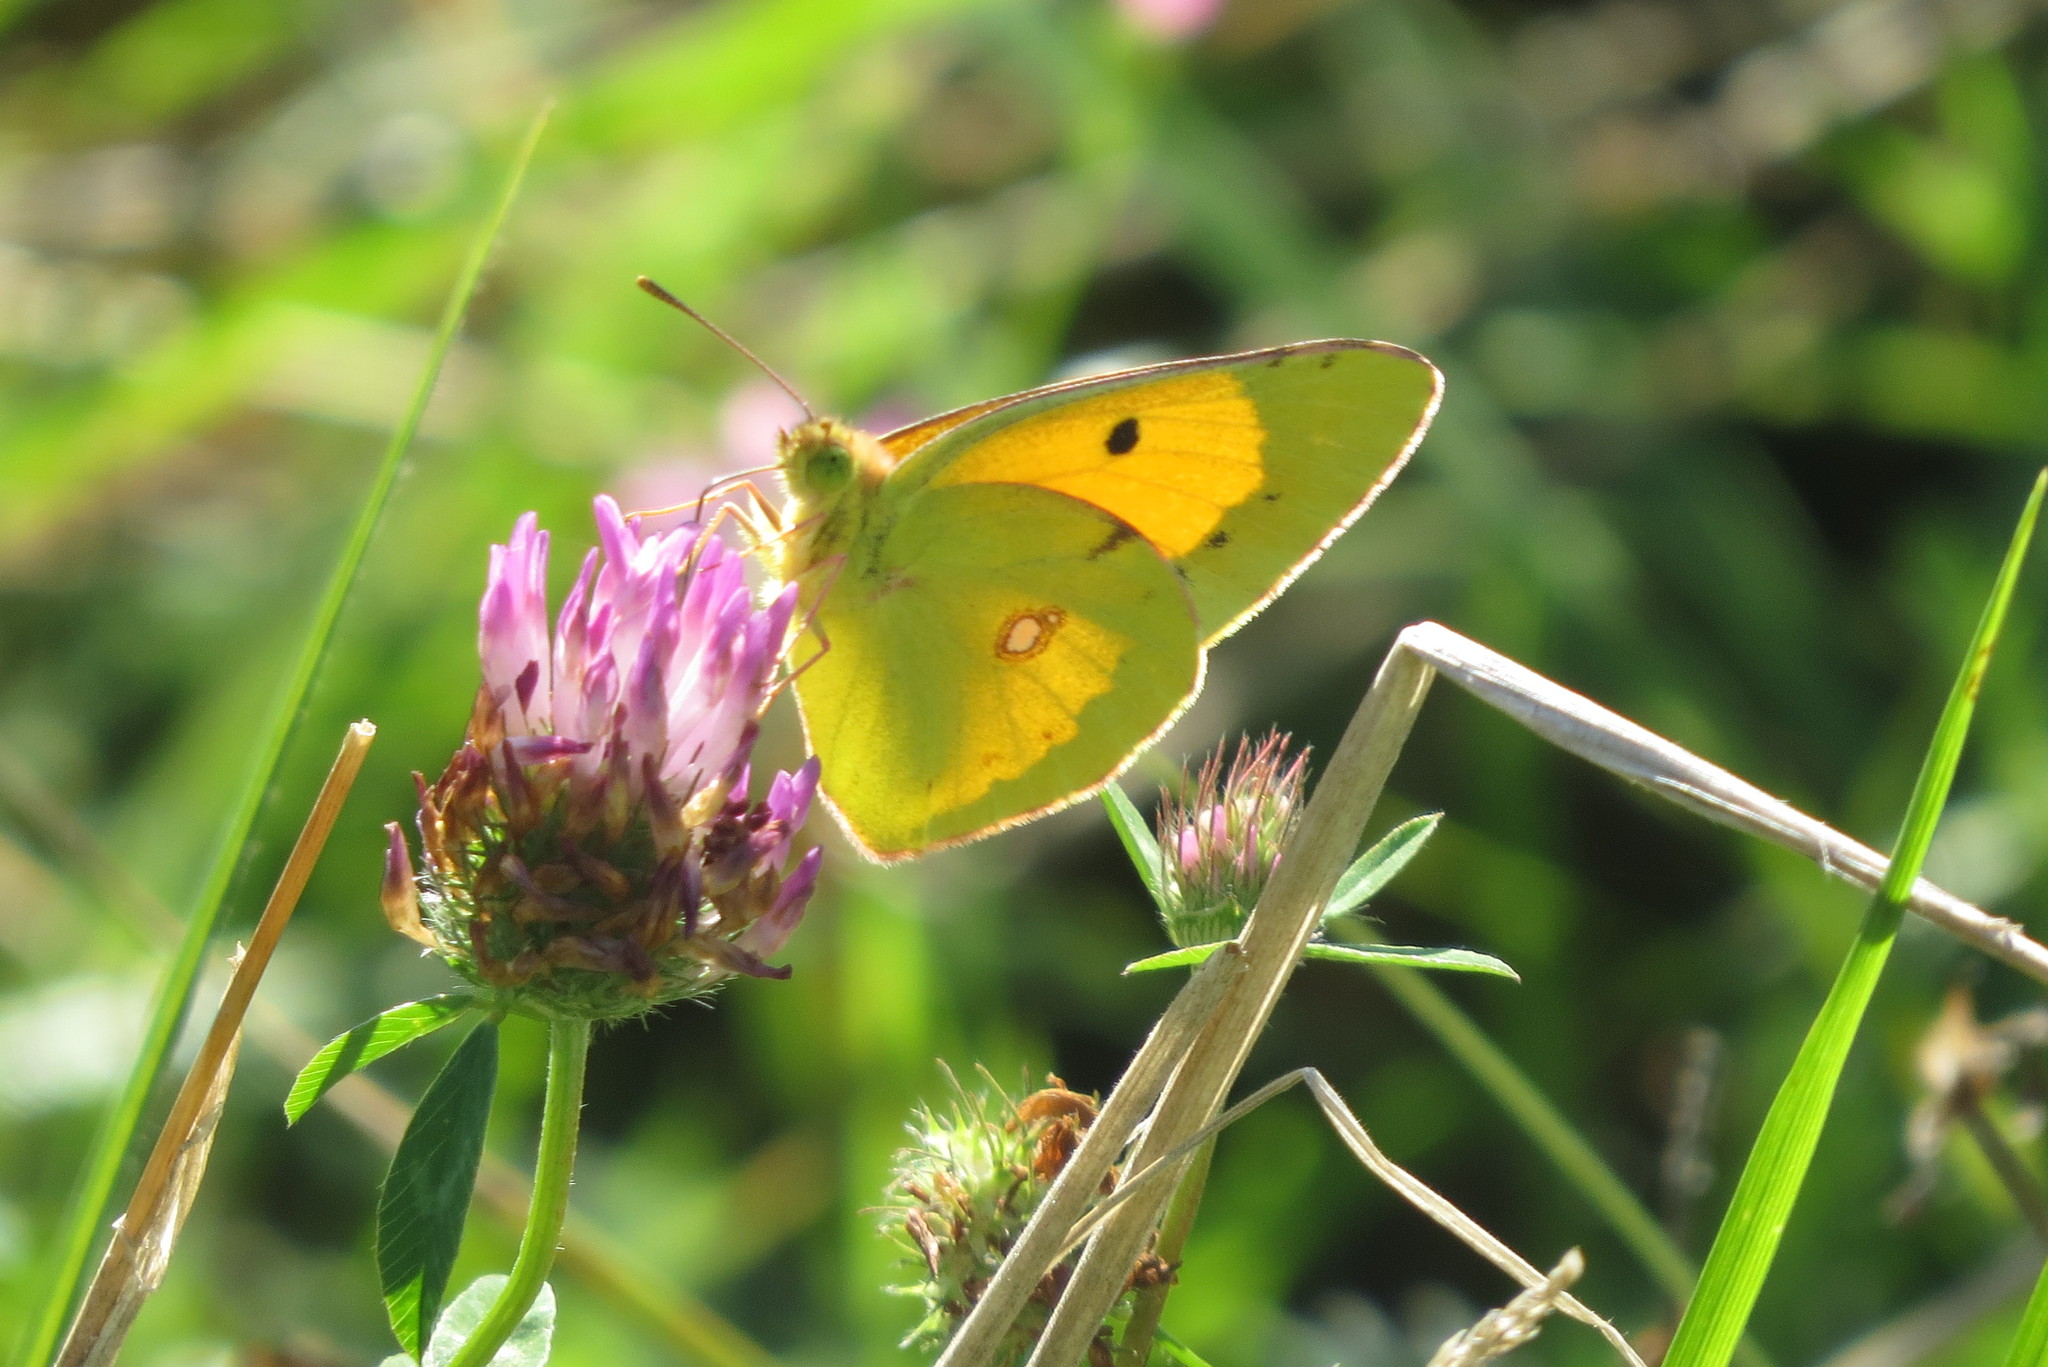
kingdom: Animalia
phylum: Arthropoda
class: Insecta
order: Lepidoptera
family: Pieridae
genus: Colias
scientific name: Colias croceus
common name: Clouded yellow
